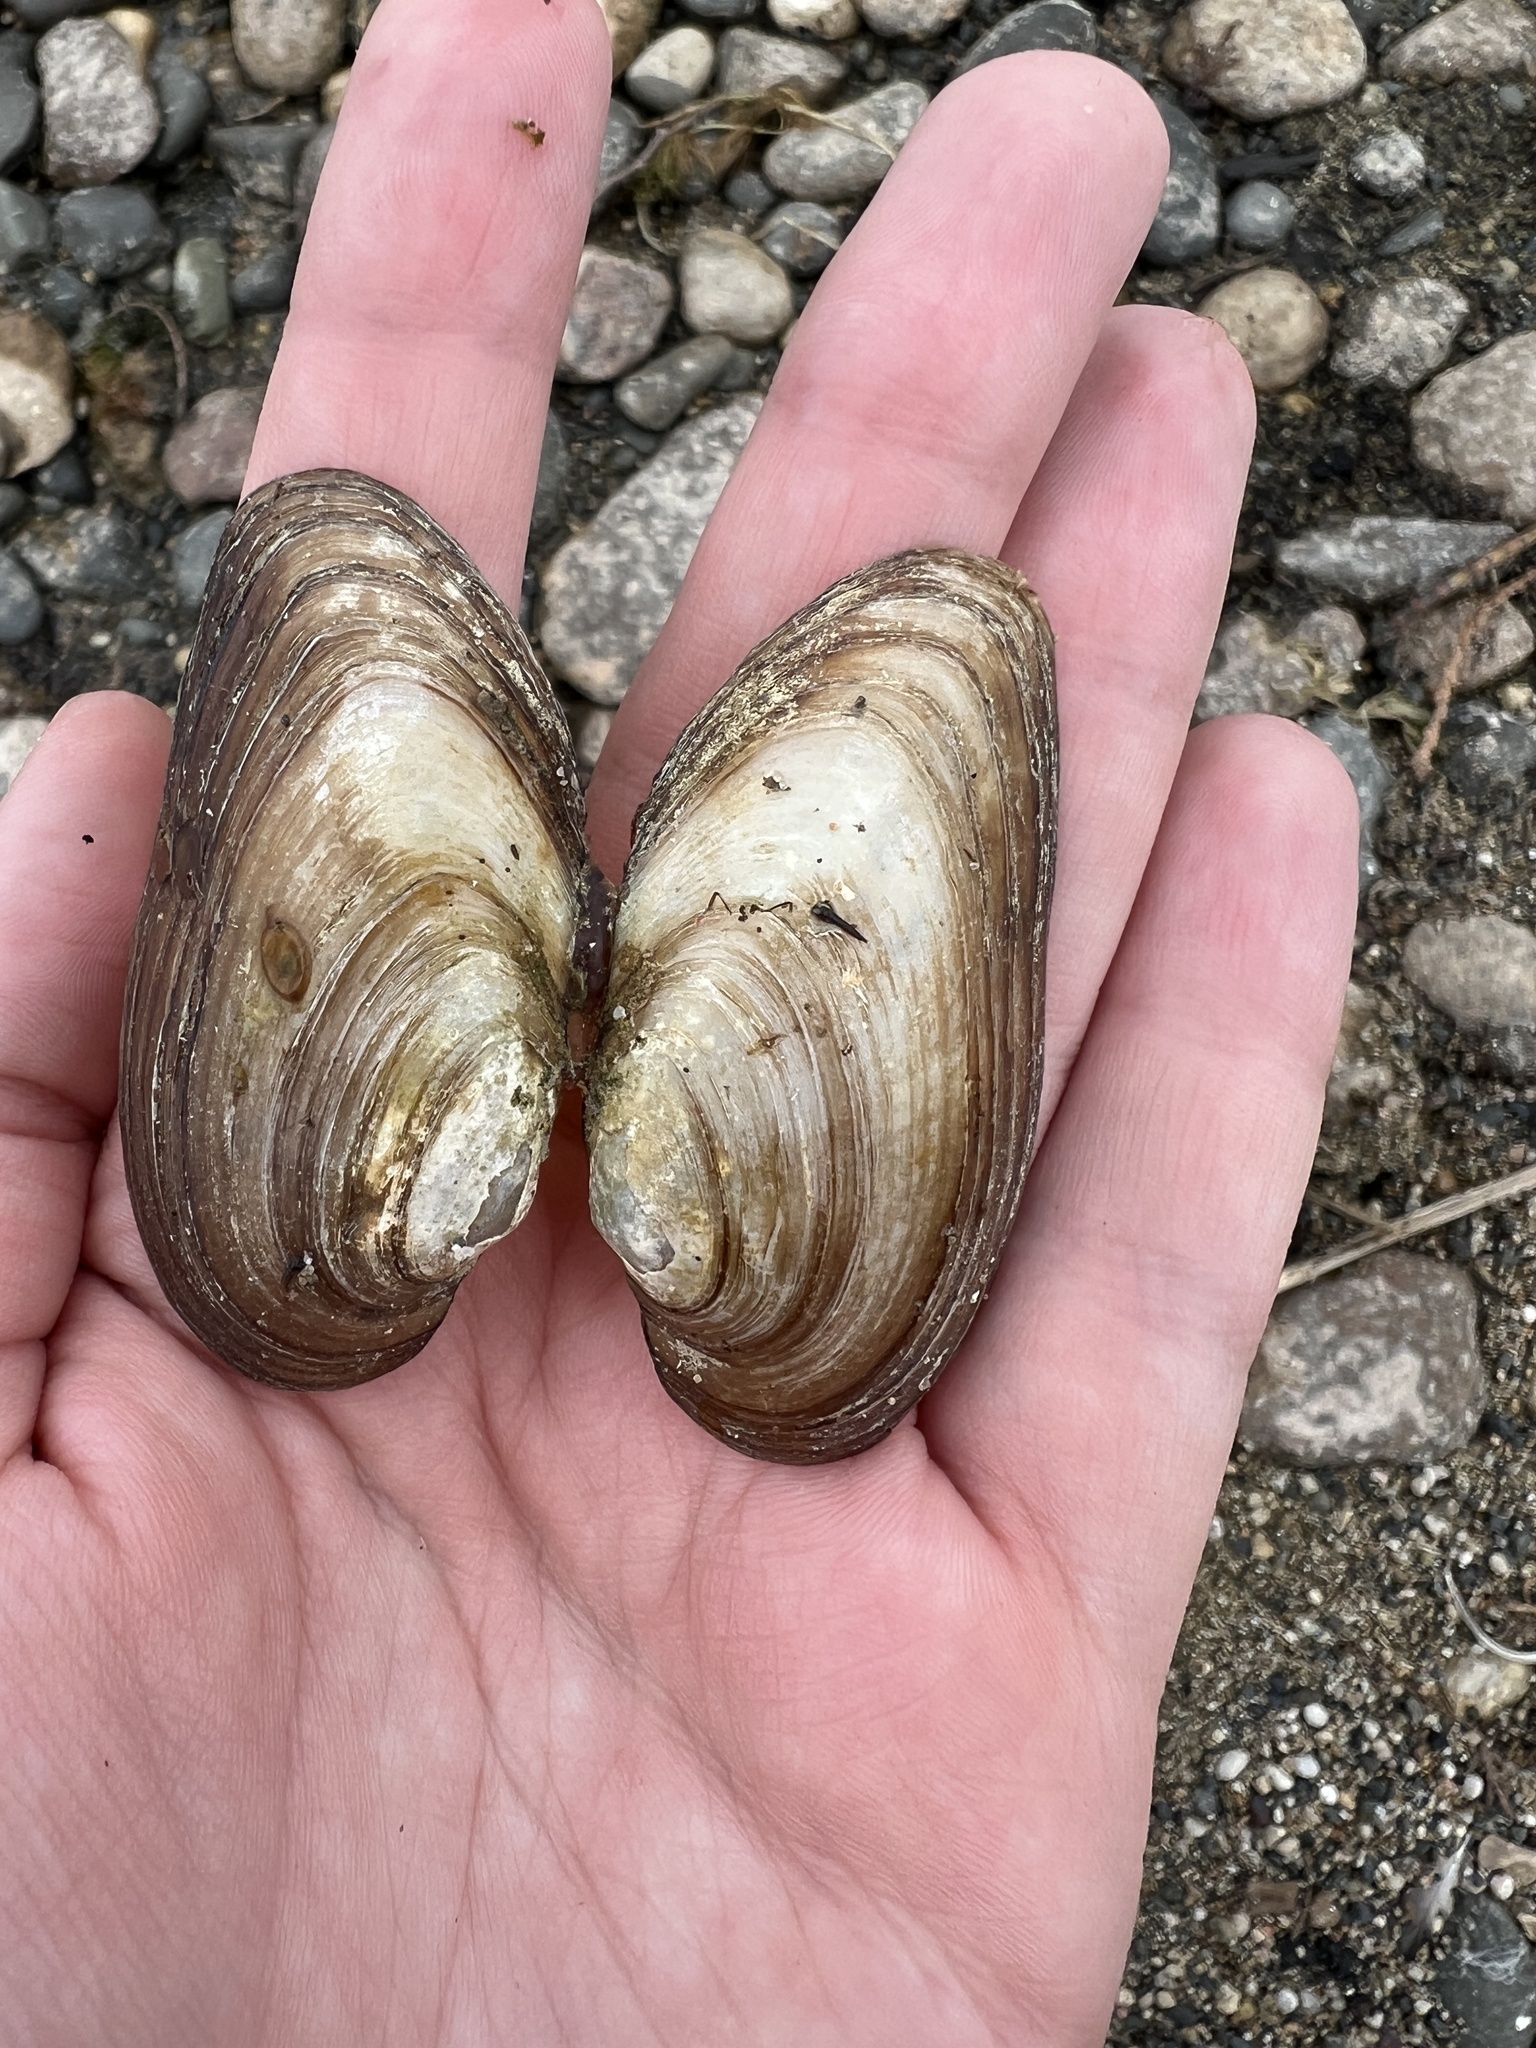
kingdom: Animalia
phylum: Mollusca
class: Bivalvia
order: Unionida
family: Unionidae
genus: Pyganodon
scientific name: Pyganodon grandis
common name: Giant floater
